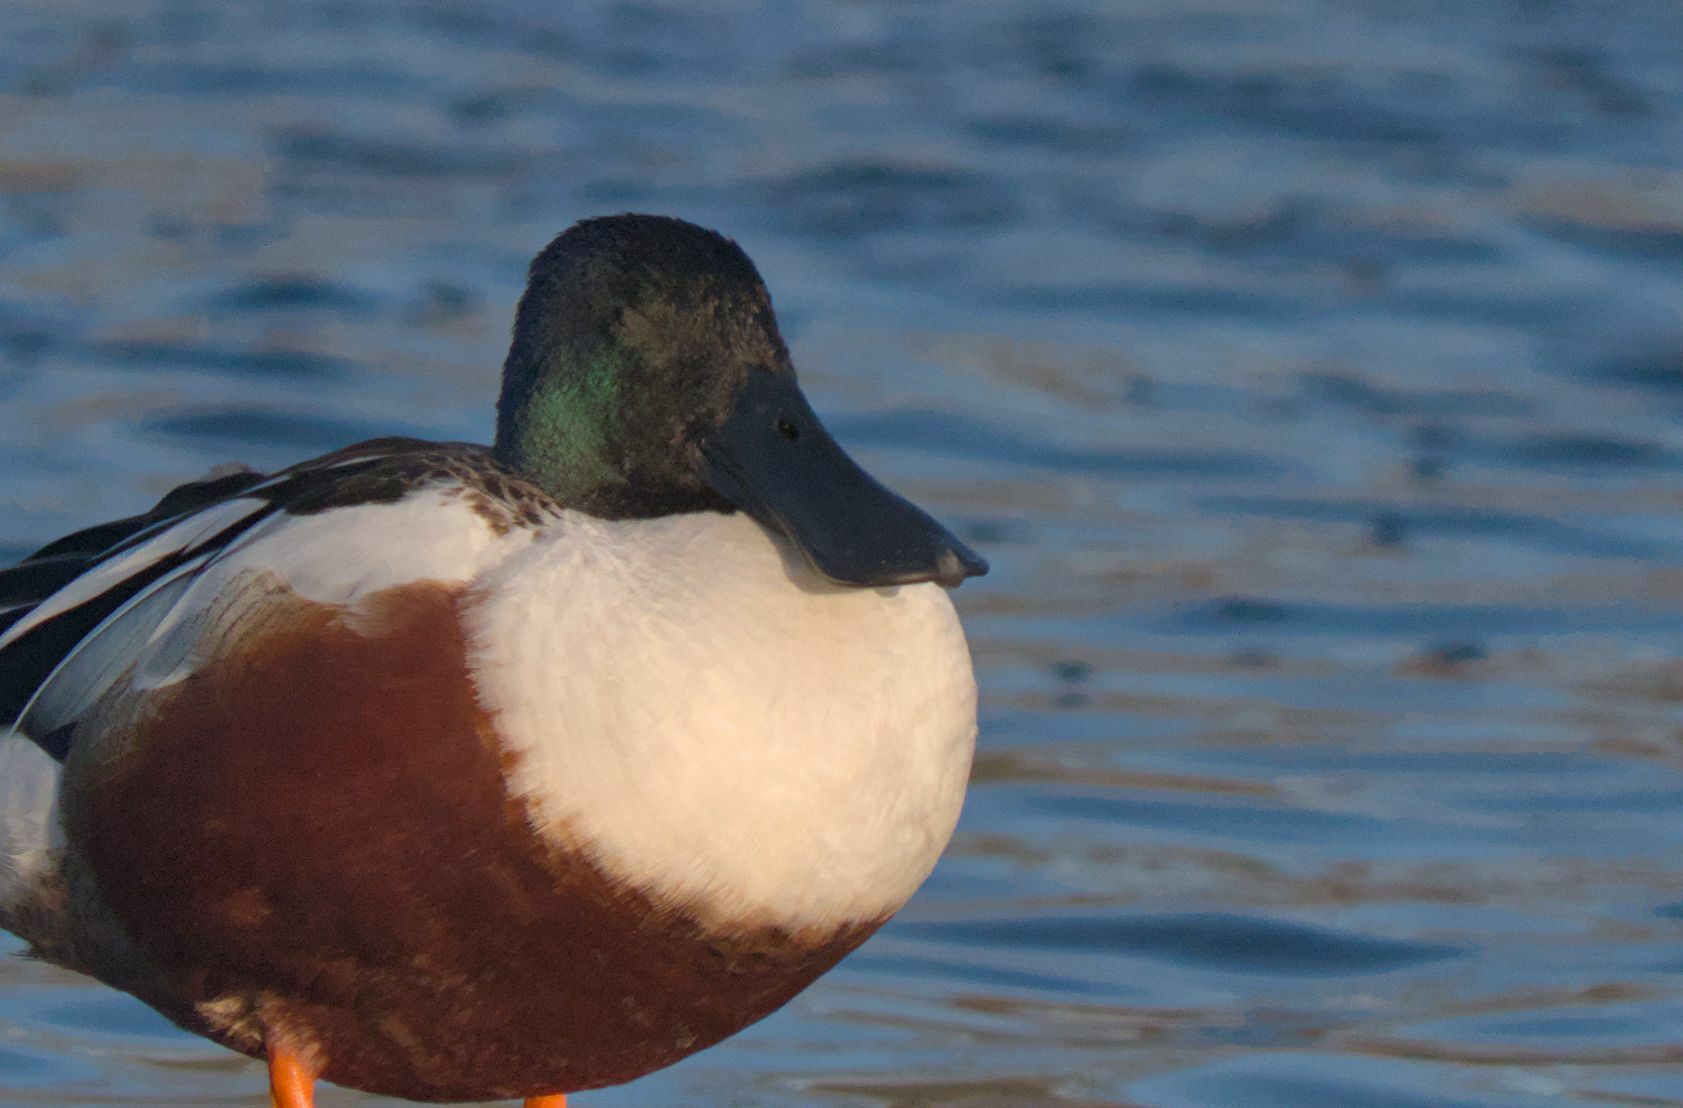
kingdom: Animalia
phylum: Chordata
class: Aves
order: Anseriformes
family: Anatidae
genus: Spatula
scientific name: Spatula clypeata
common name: Northern shoveler
